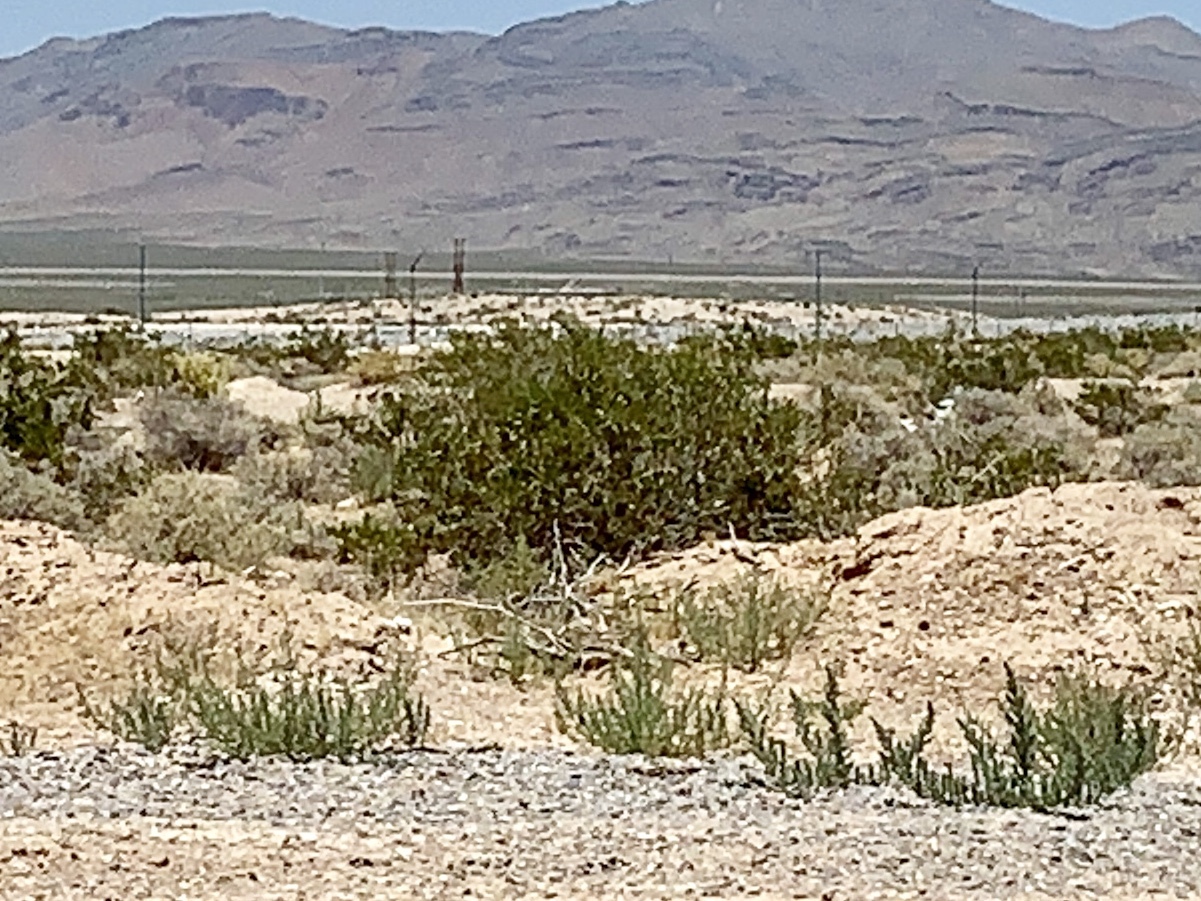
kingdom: Plantae
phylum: Tracheophyta
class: Magnoliopsida
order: Zygophyllales
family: Zygophyllaceae
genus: Larrea
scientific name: Larrea tridentata
